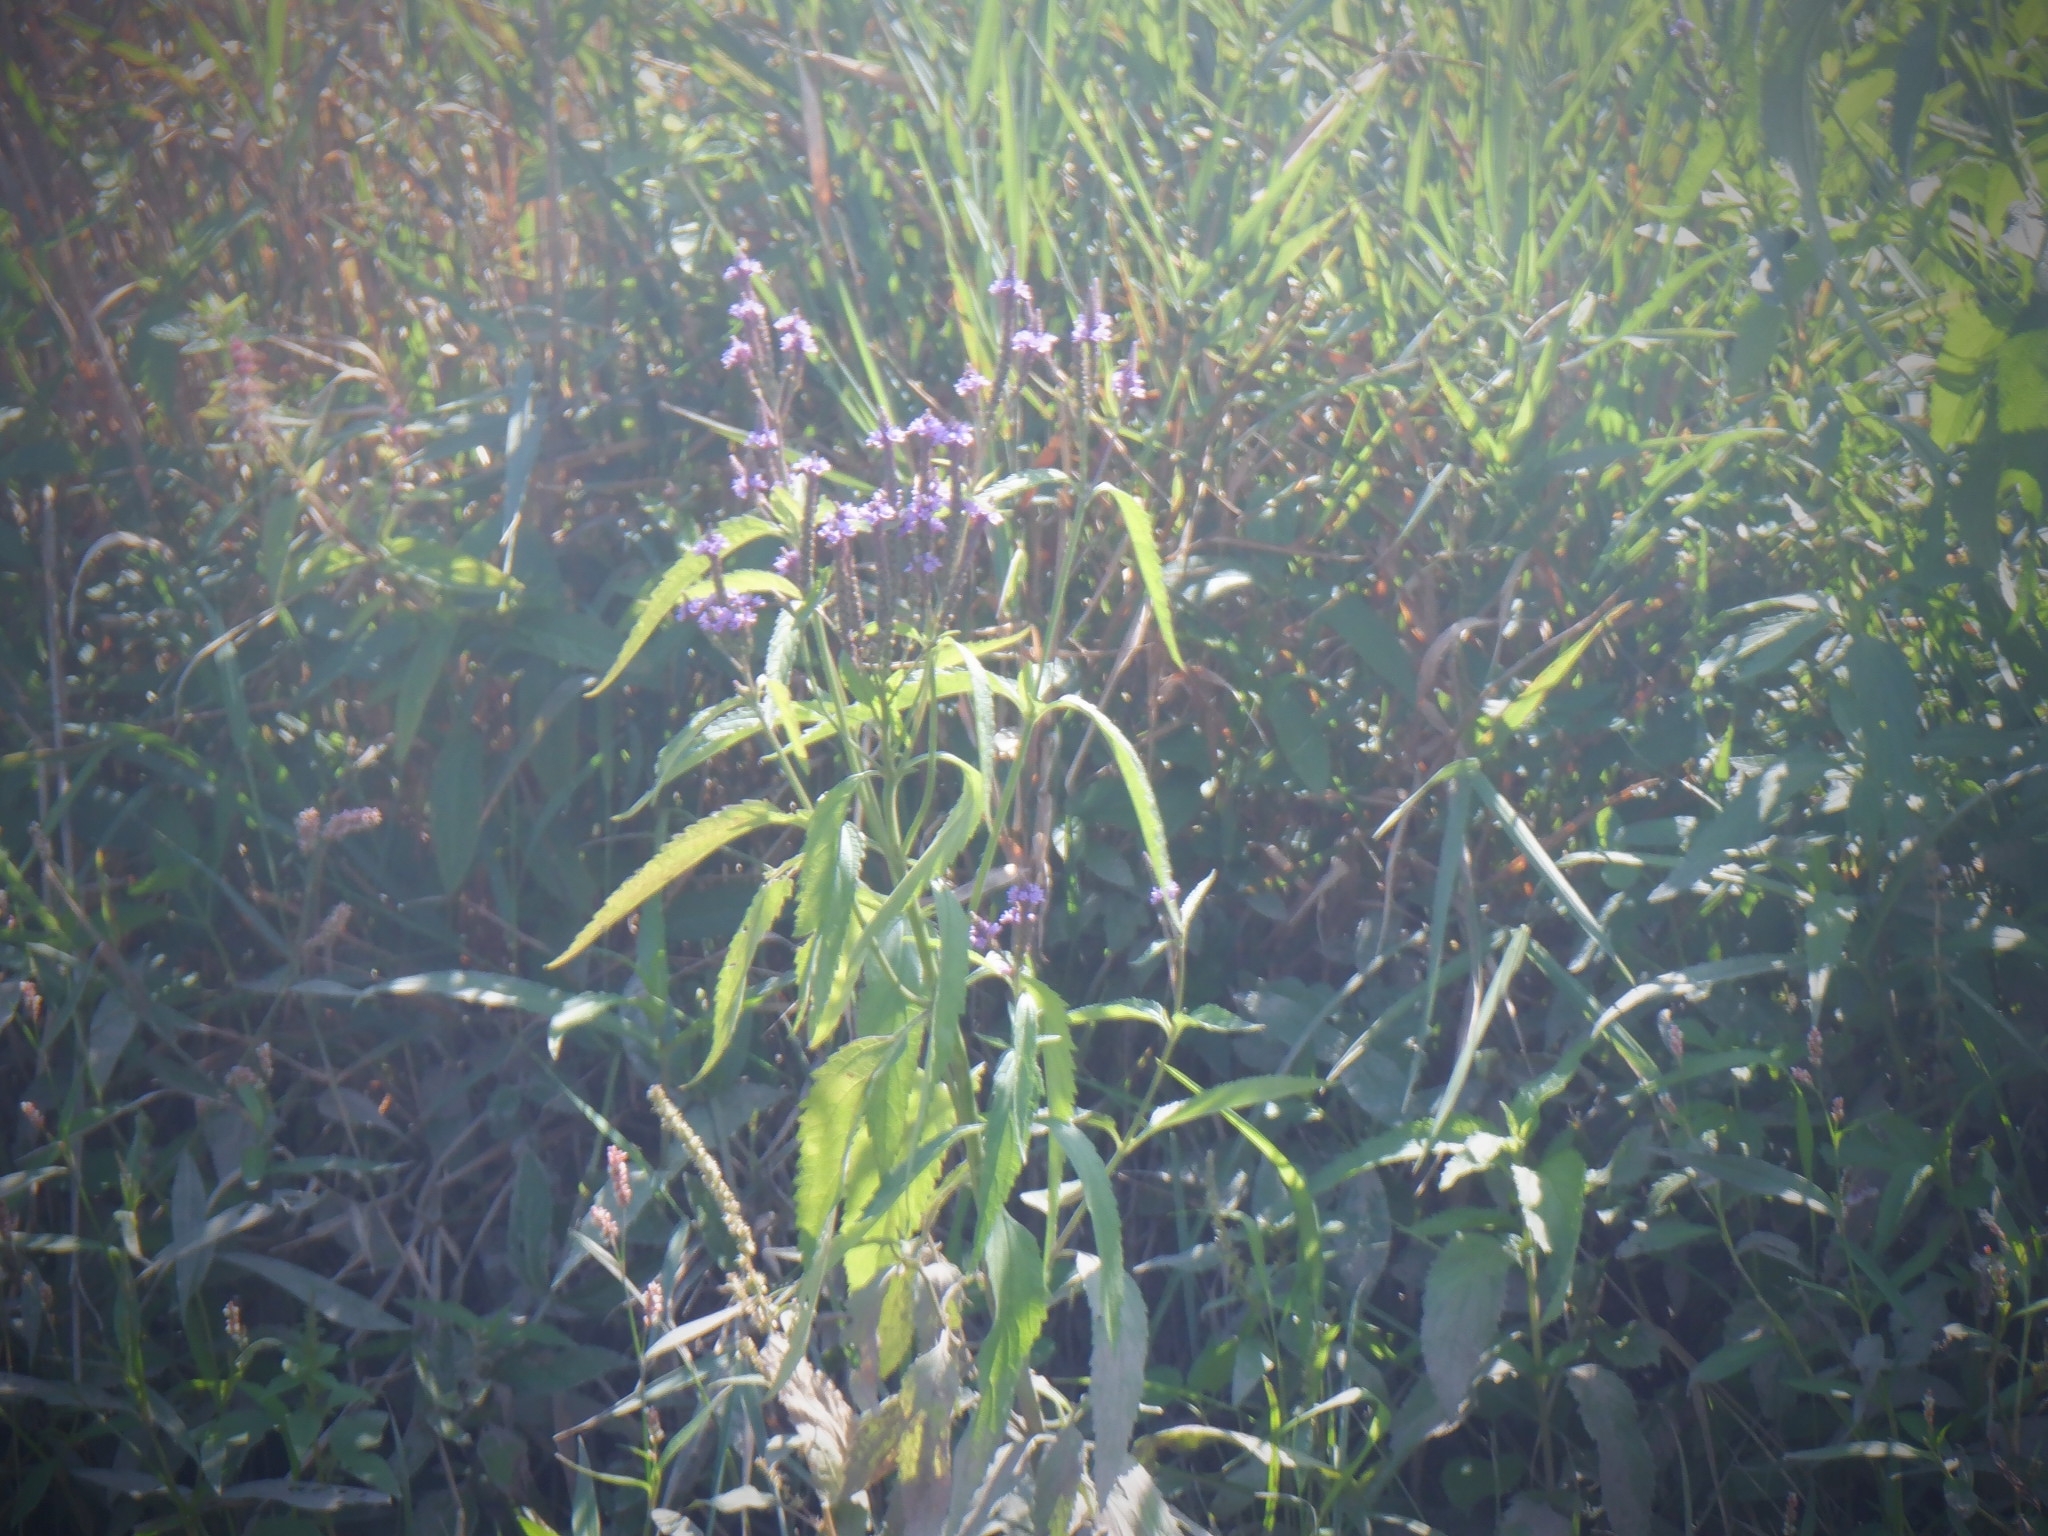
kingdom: Plantae
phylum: Tracheophyta
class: Magnoliopsida
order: Lamiales
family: Verbenaceae
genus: Verbena
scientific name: Verbena hastata
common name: American blue vervain
